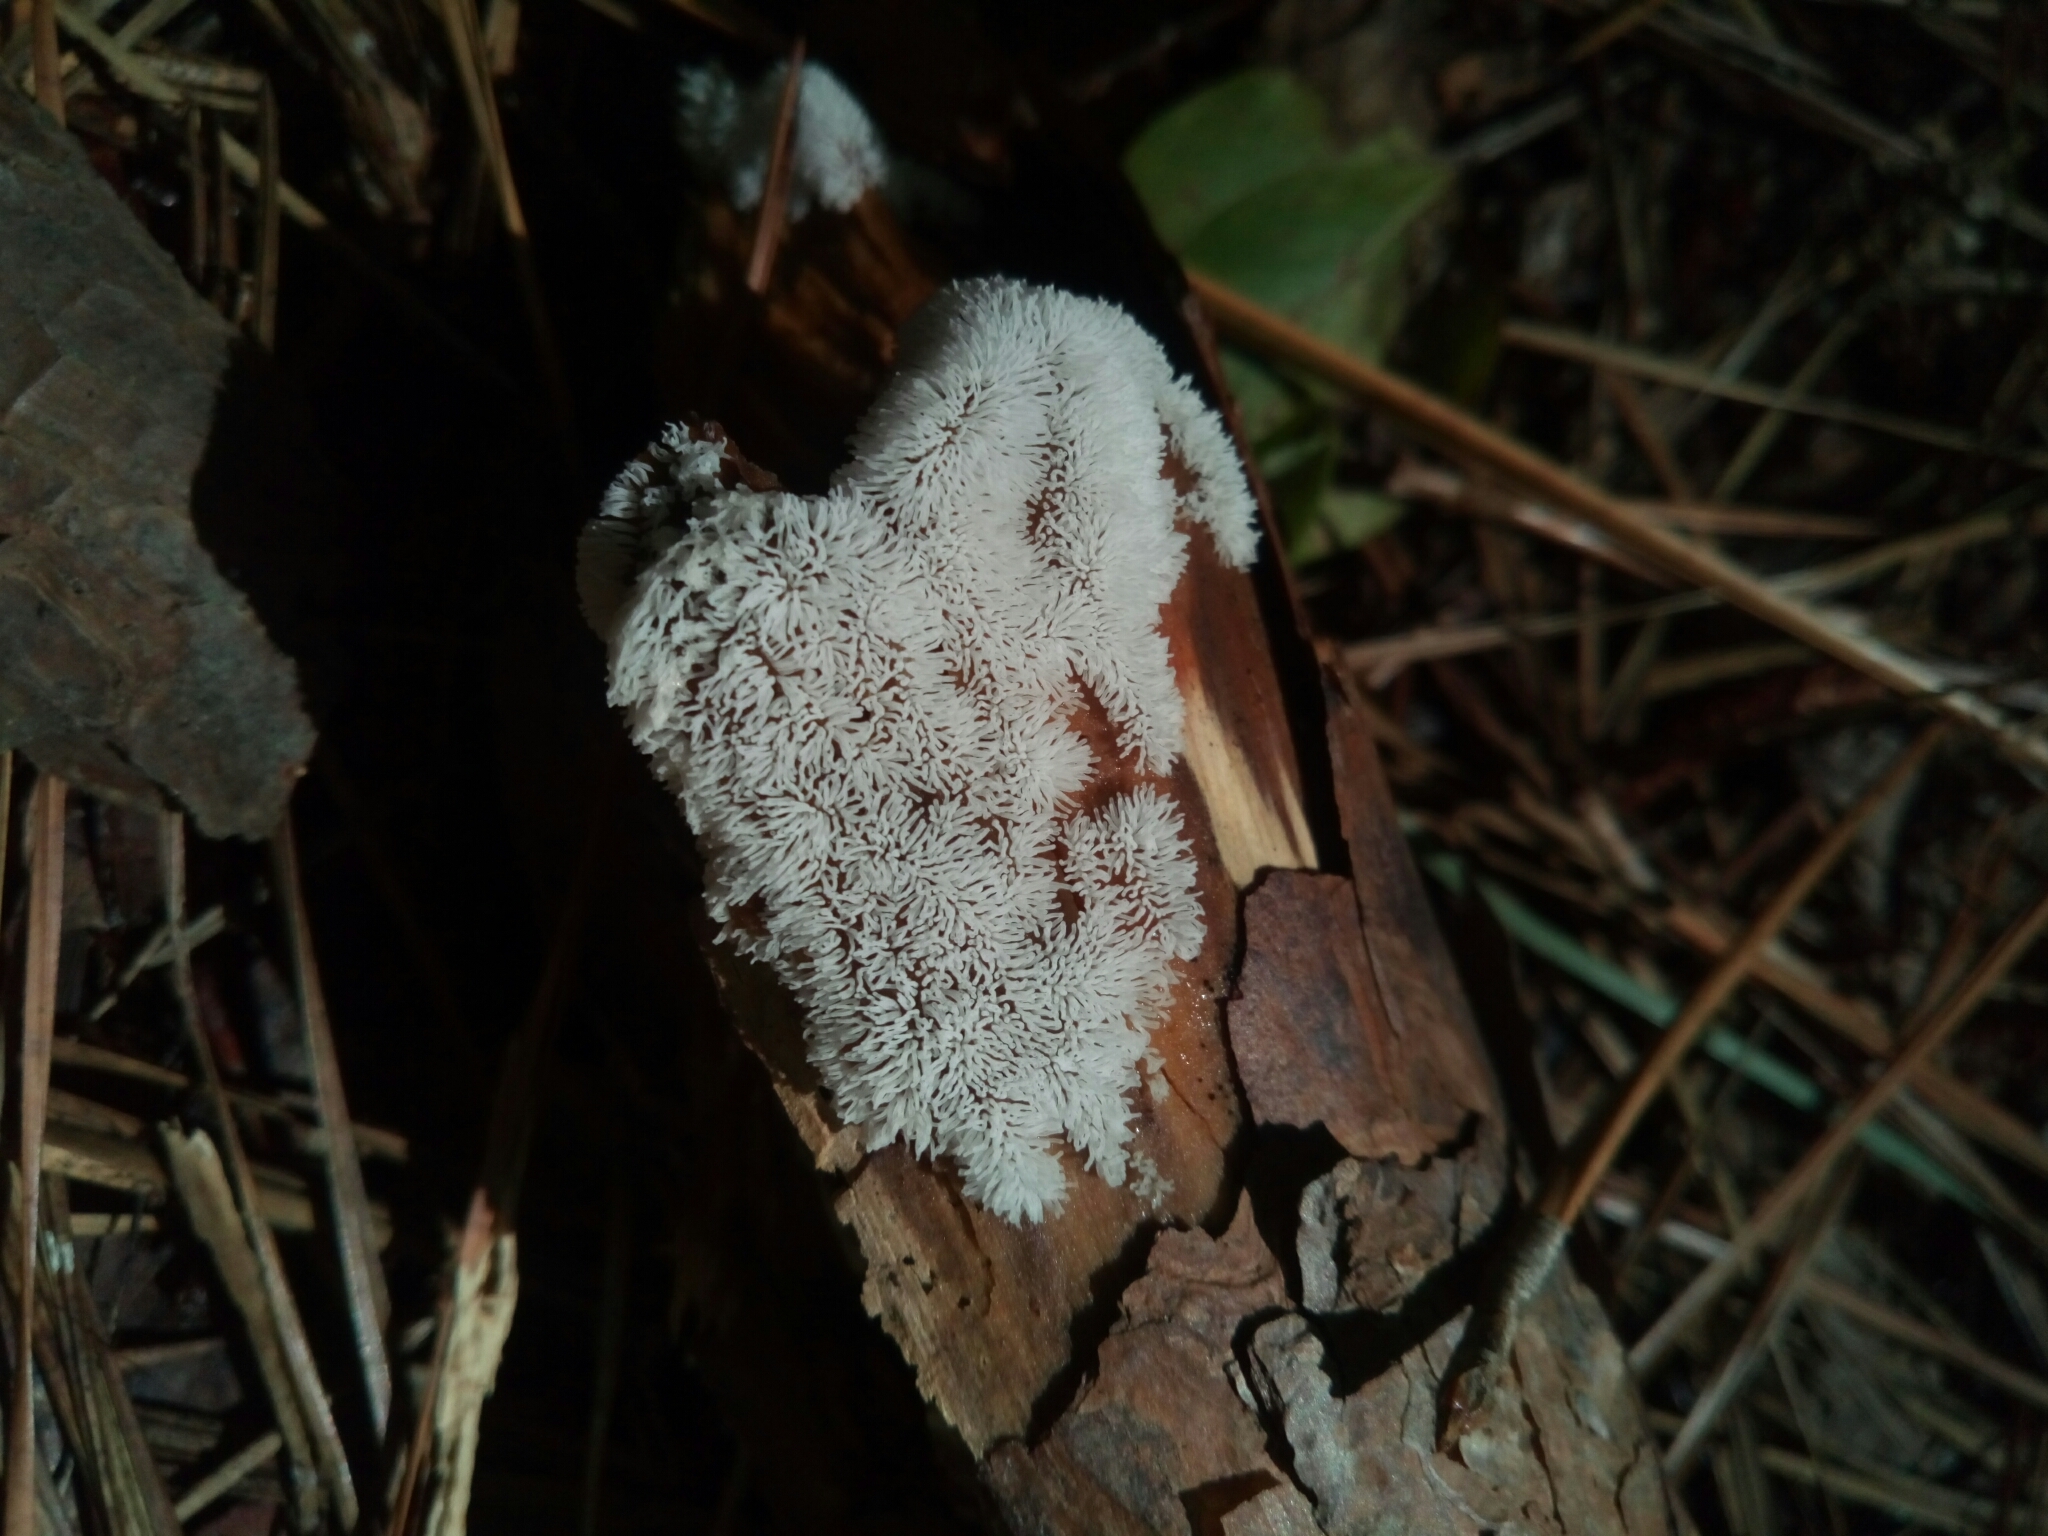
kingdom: Protozoa
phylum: Mycetozoa
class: Protosteliomycetes
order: Ceratiomyxales
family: Ceratiomyxaceae
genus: Ceratiomyxa
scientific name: Ceratiomyxa fruticulosa
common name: Honeycomb coral slime mold
